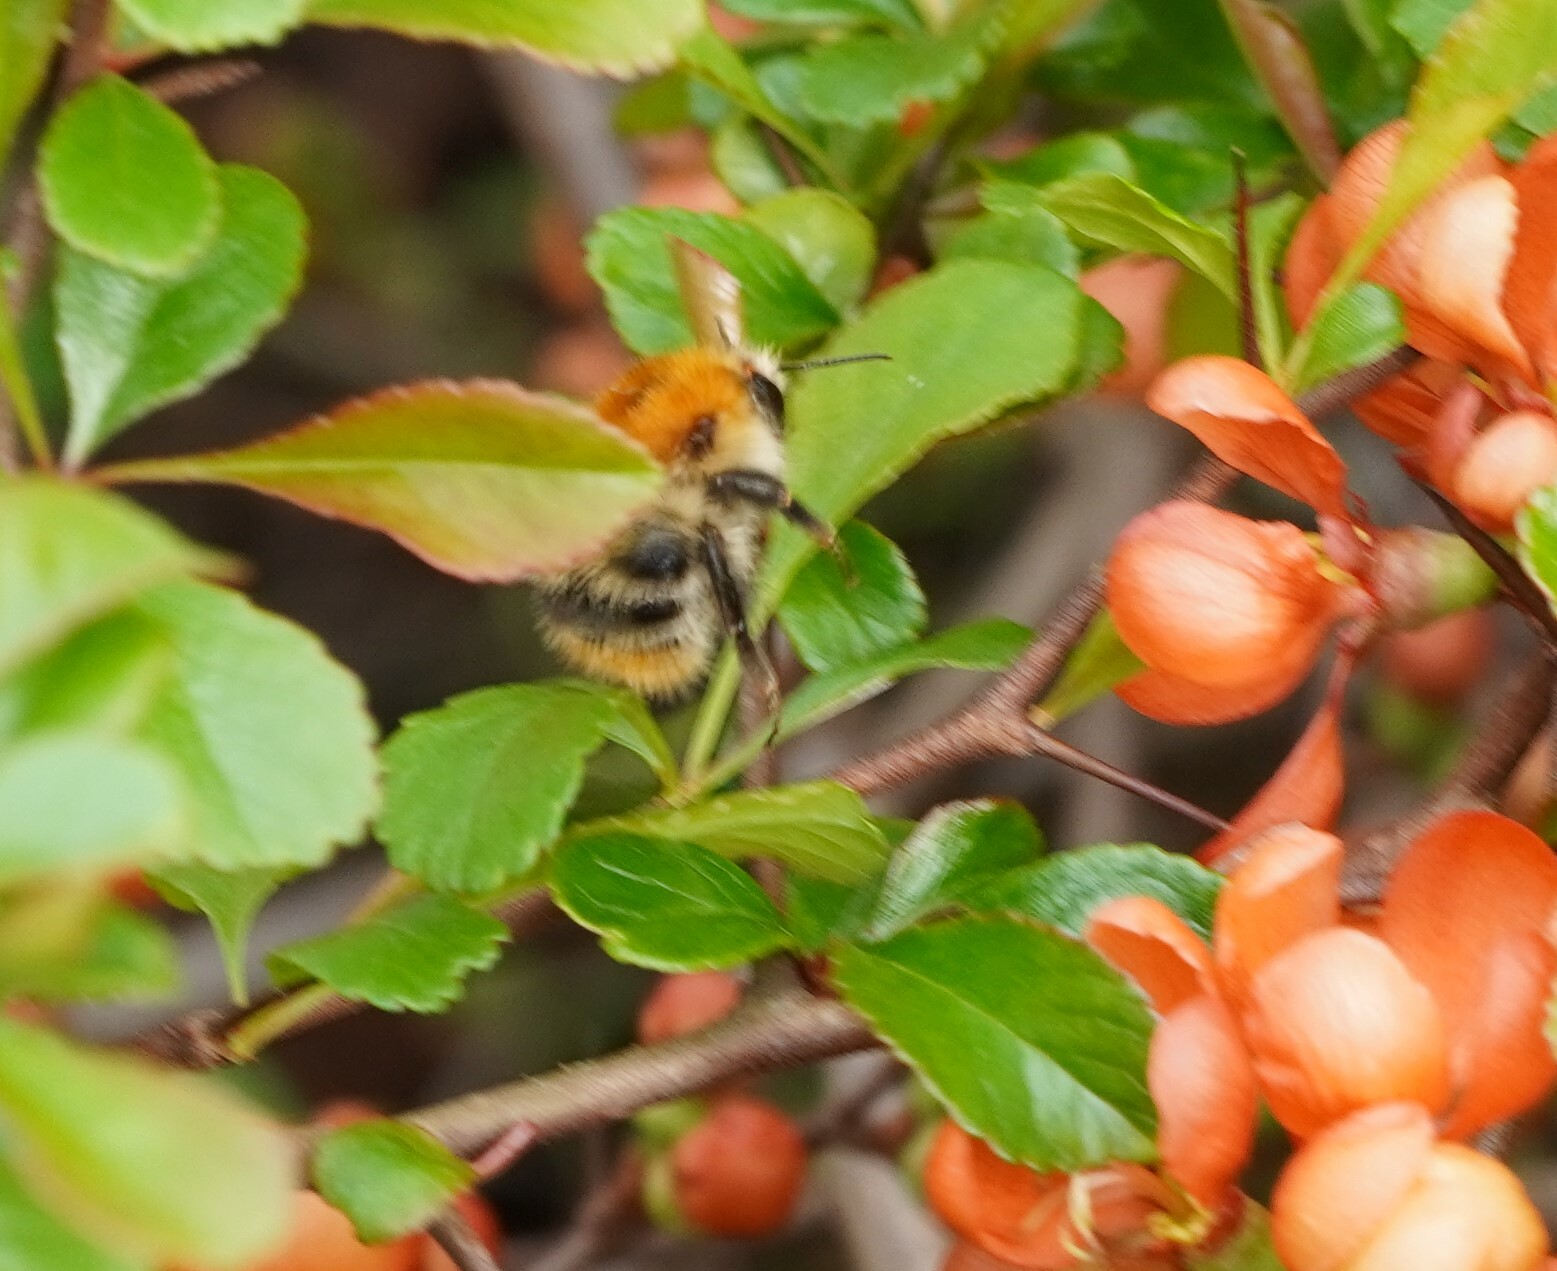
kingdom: Animalia
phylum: Arthropoda
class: Insecta
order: Hymenoptera
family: Apidae
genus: Bombus
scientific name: Bombus pascuorum
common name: Common carder bee
